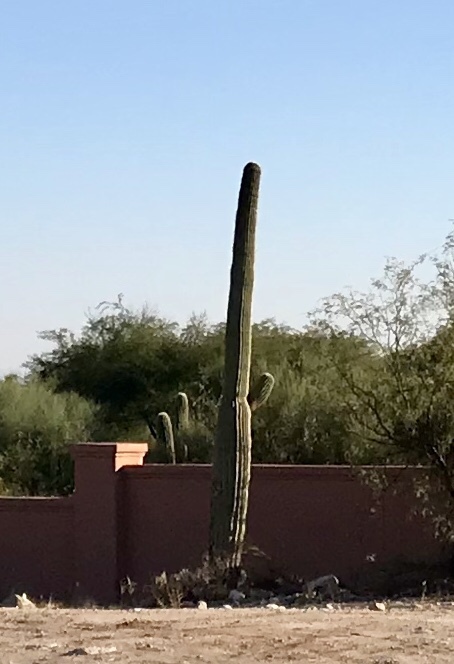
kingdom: Plantae
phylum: Tracheophyta
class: Magnoliopsida
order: Caryophyllales
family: Cactaceae
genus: Carnegiea
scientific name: Carnegiea gigantea
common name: Saguaro
